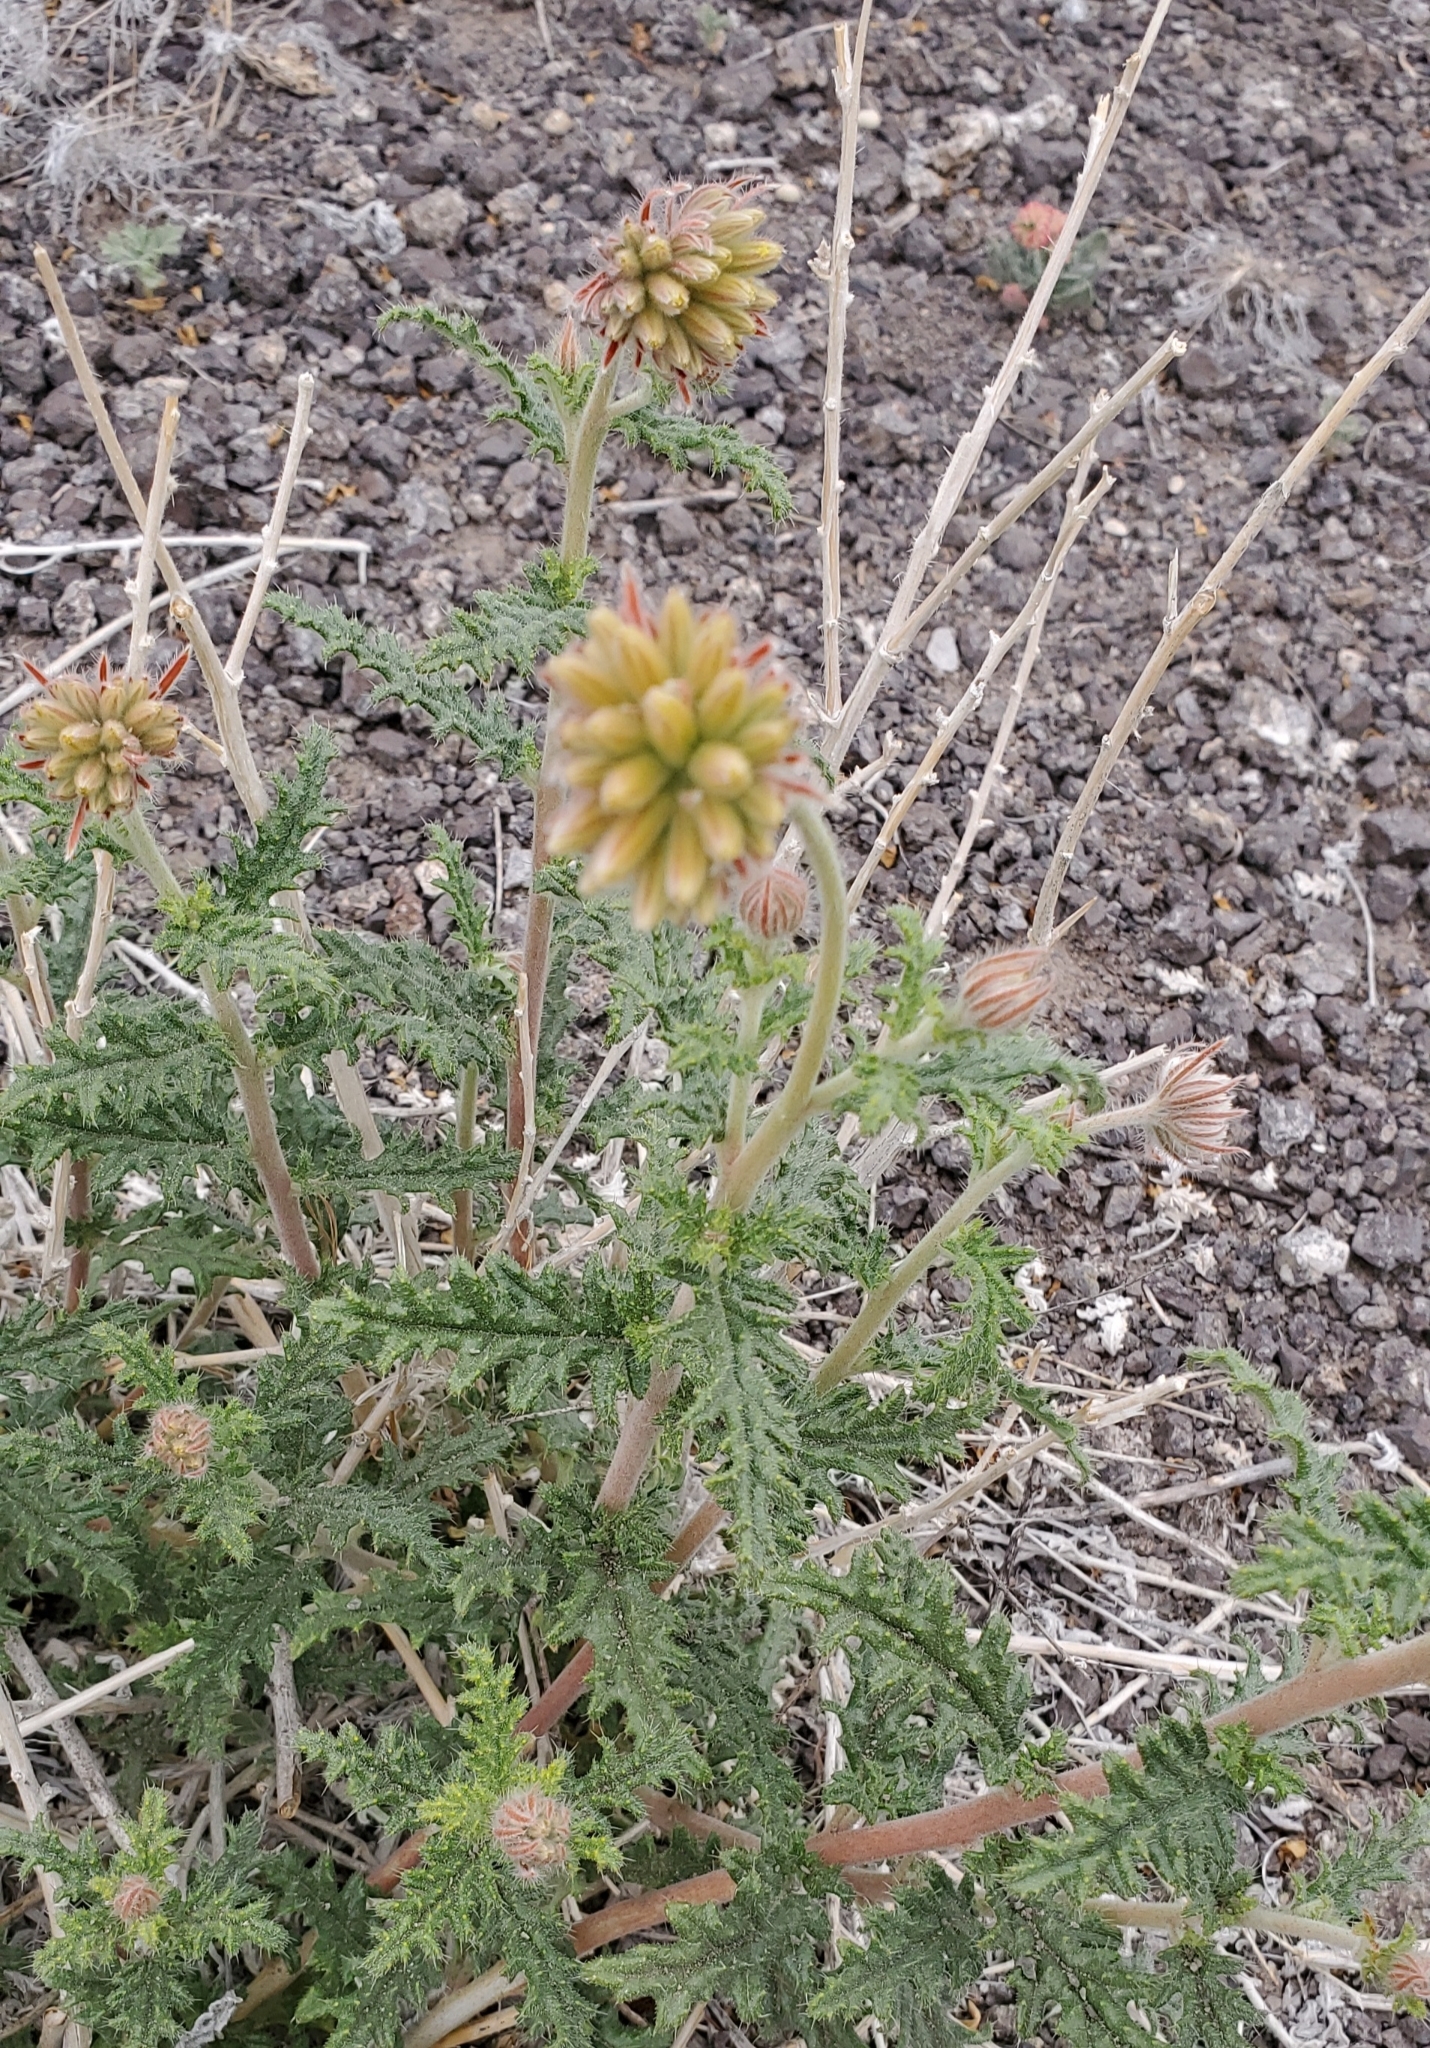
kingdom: Plantae
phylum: Tracheophyta
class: Magnoliopsida
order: Cornales
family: Loasaceae
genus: Cevallia
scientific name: Cevallia sinuata
